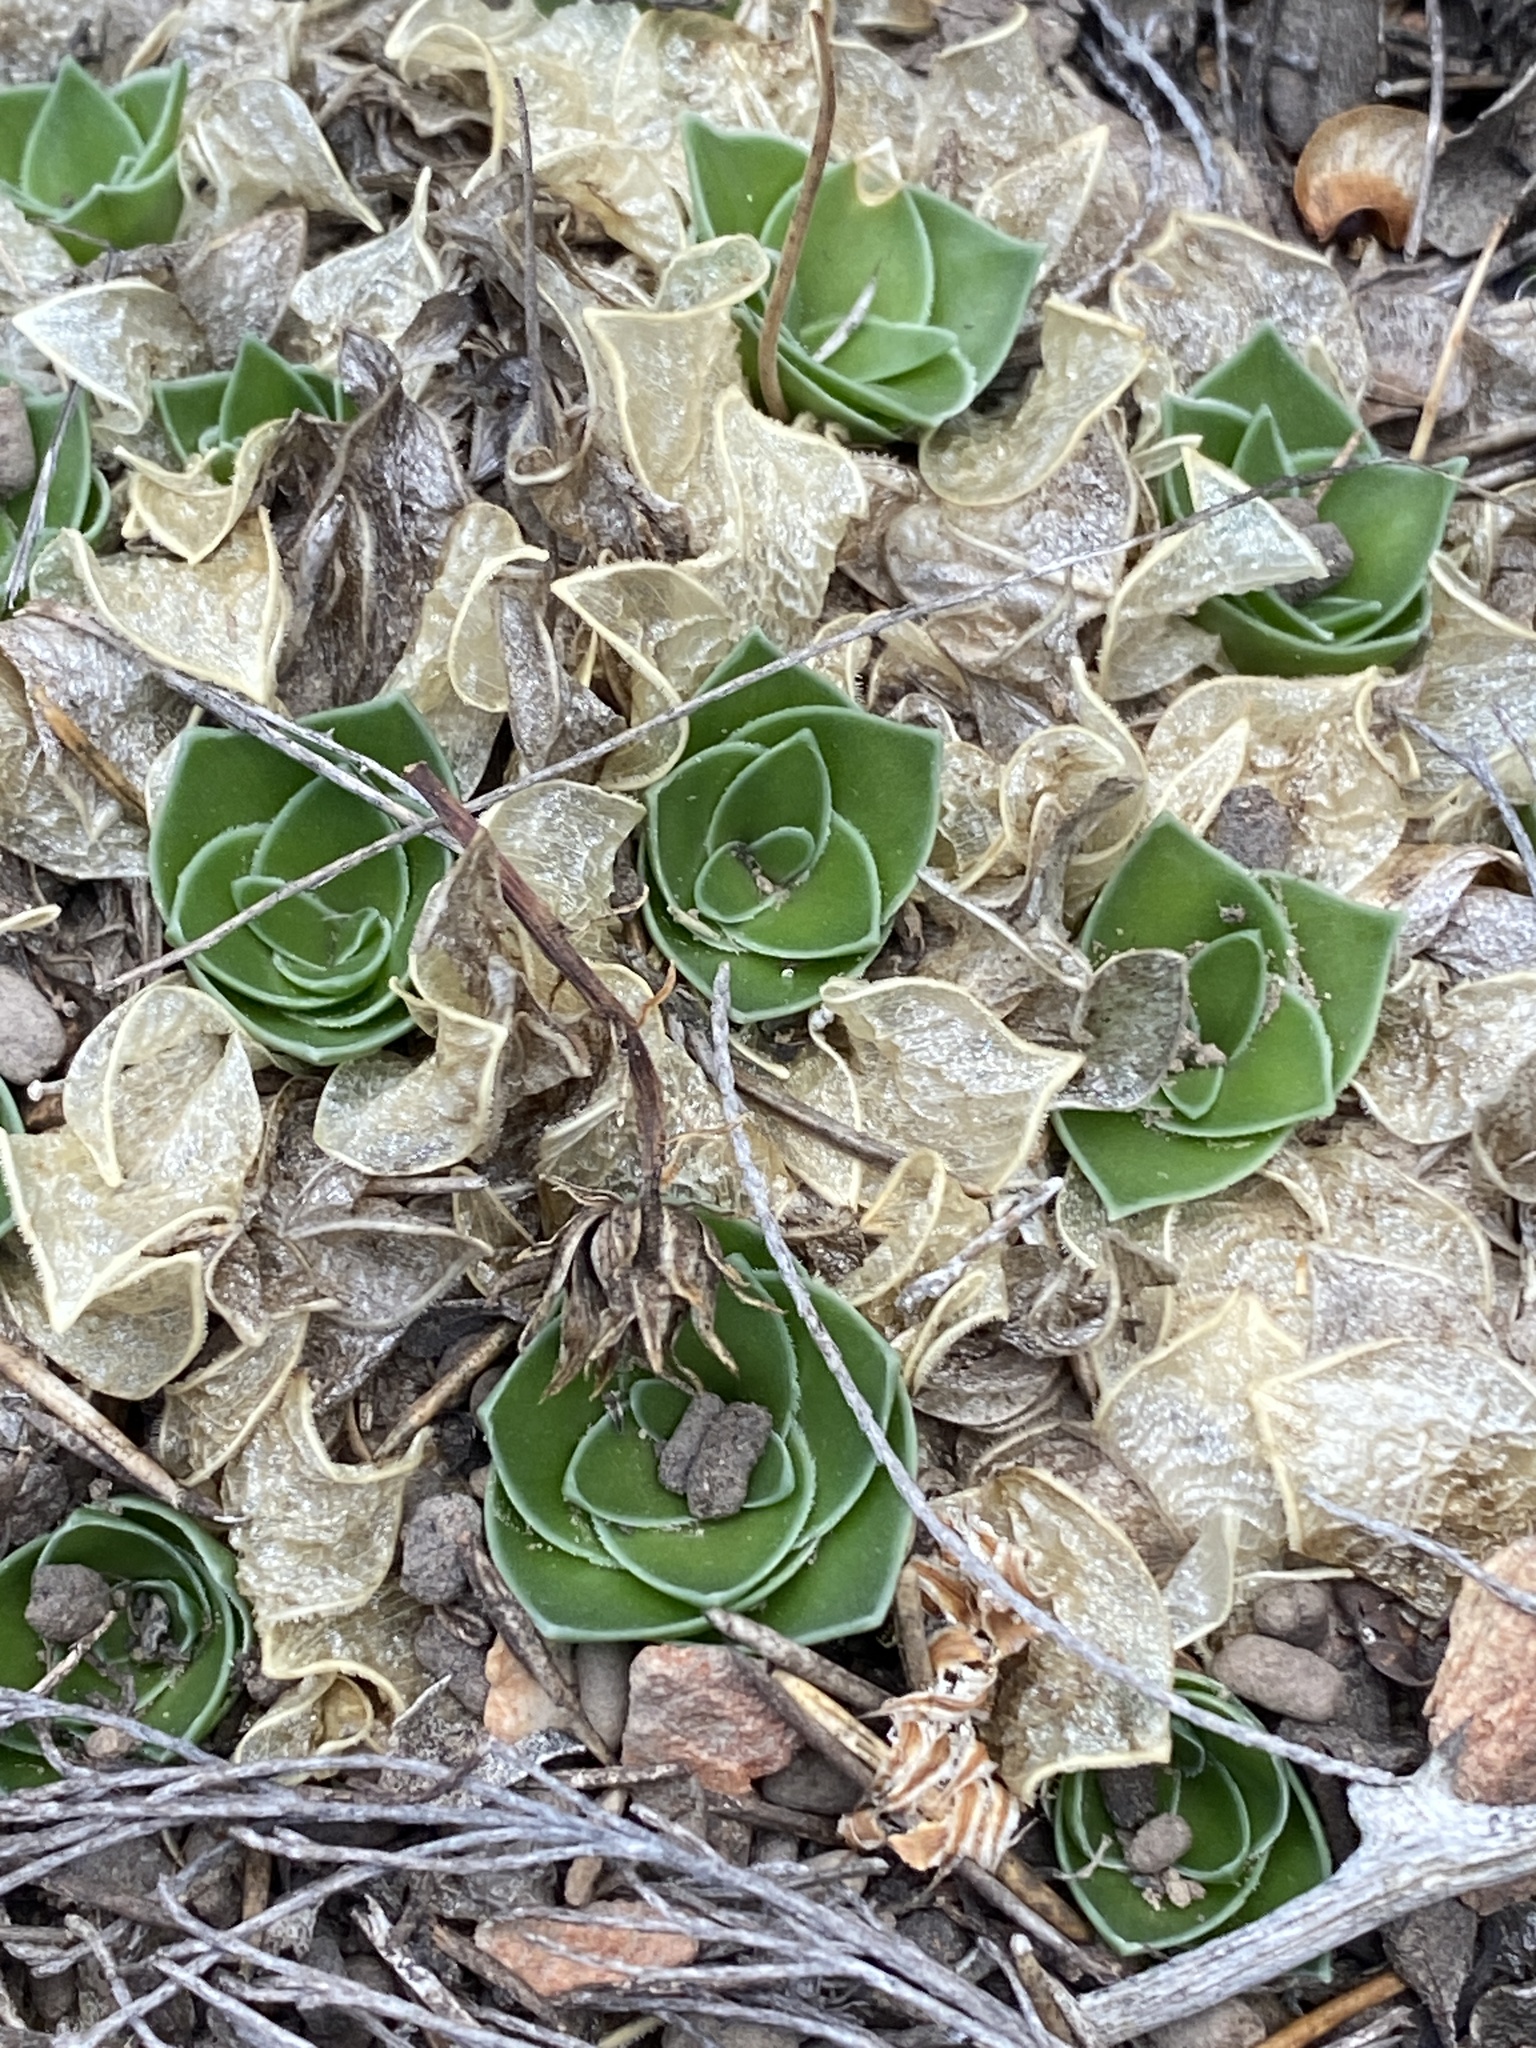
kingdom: Plantae
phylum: Tracheophyta
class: Liliopsida
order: Asparagales
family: Asparagaceae
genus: Drimia
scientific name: Drimia ciliata
